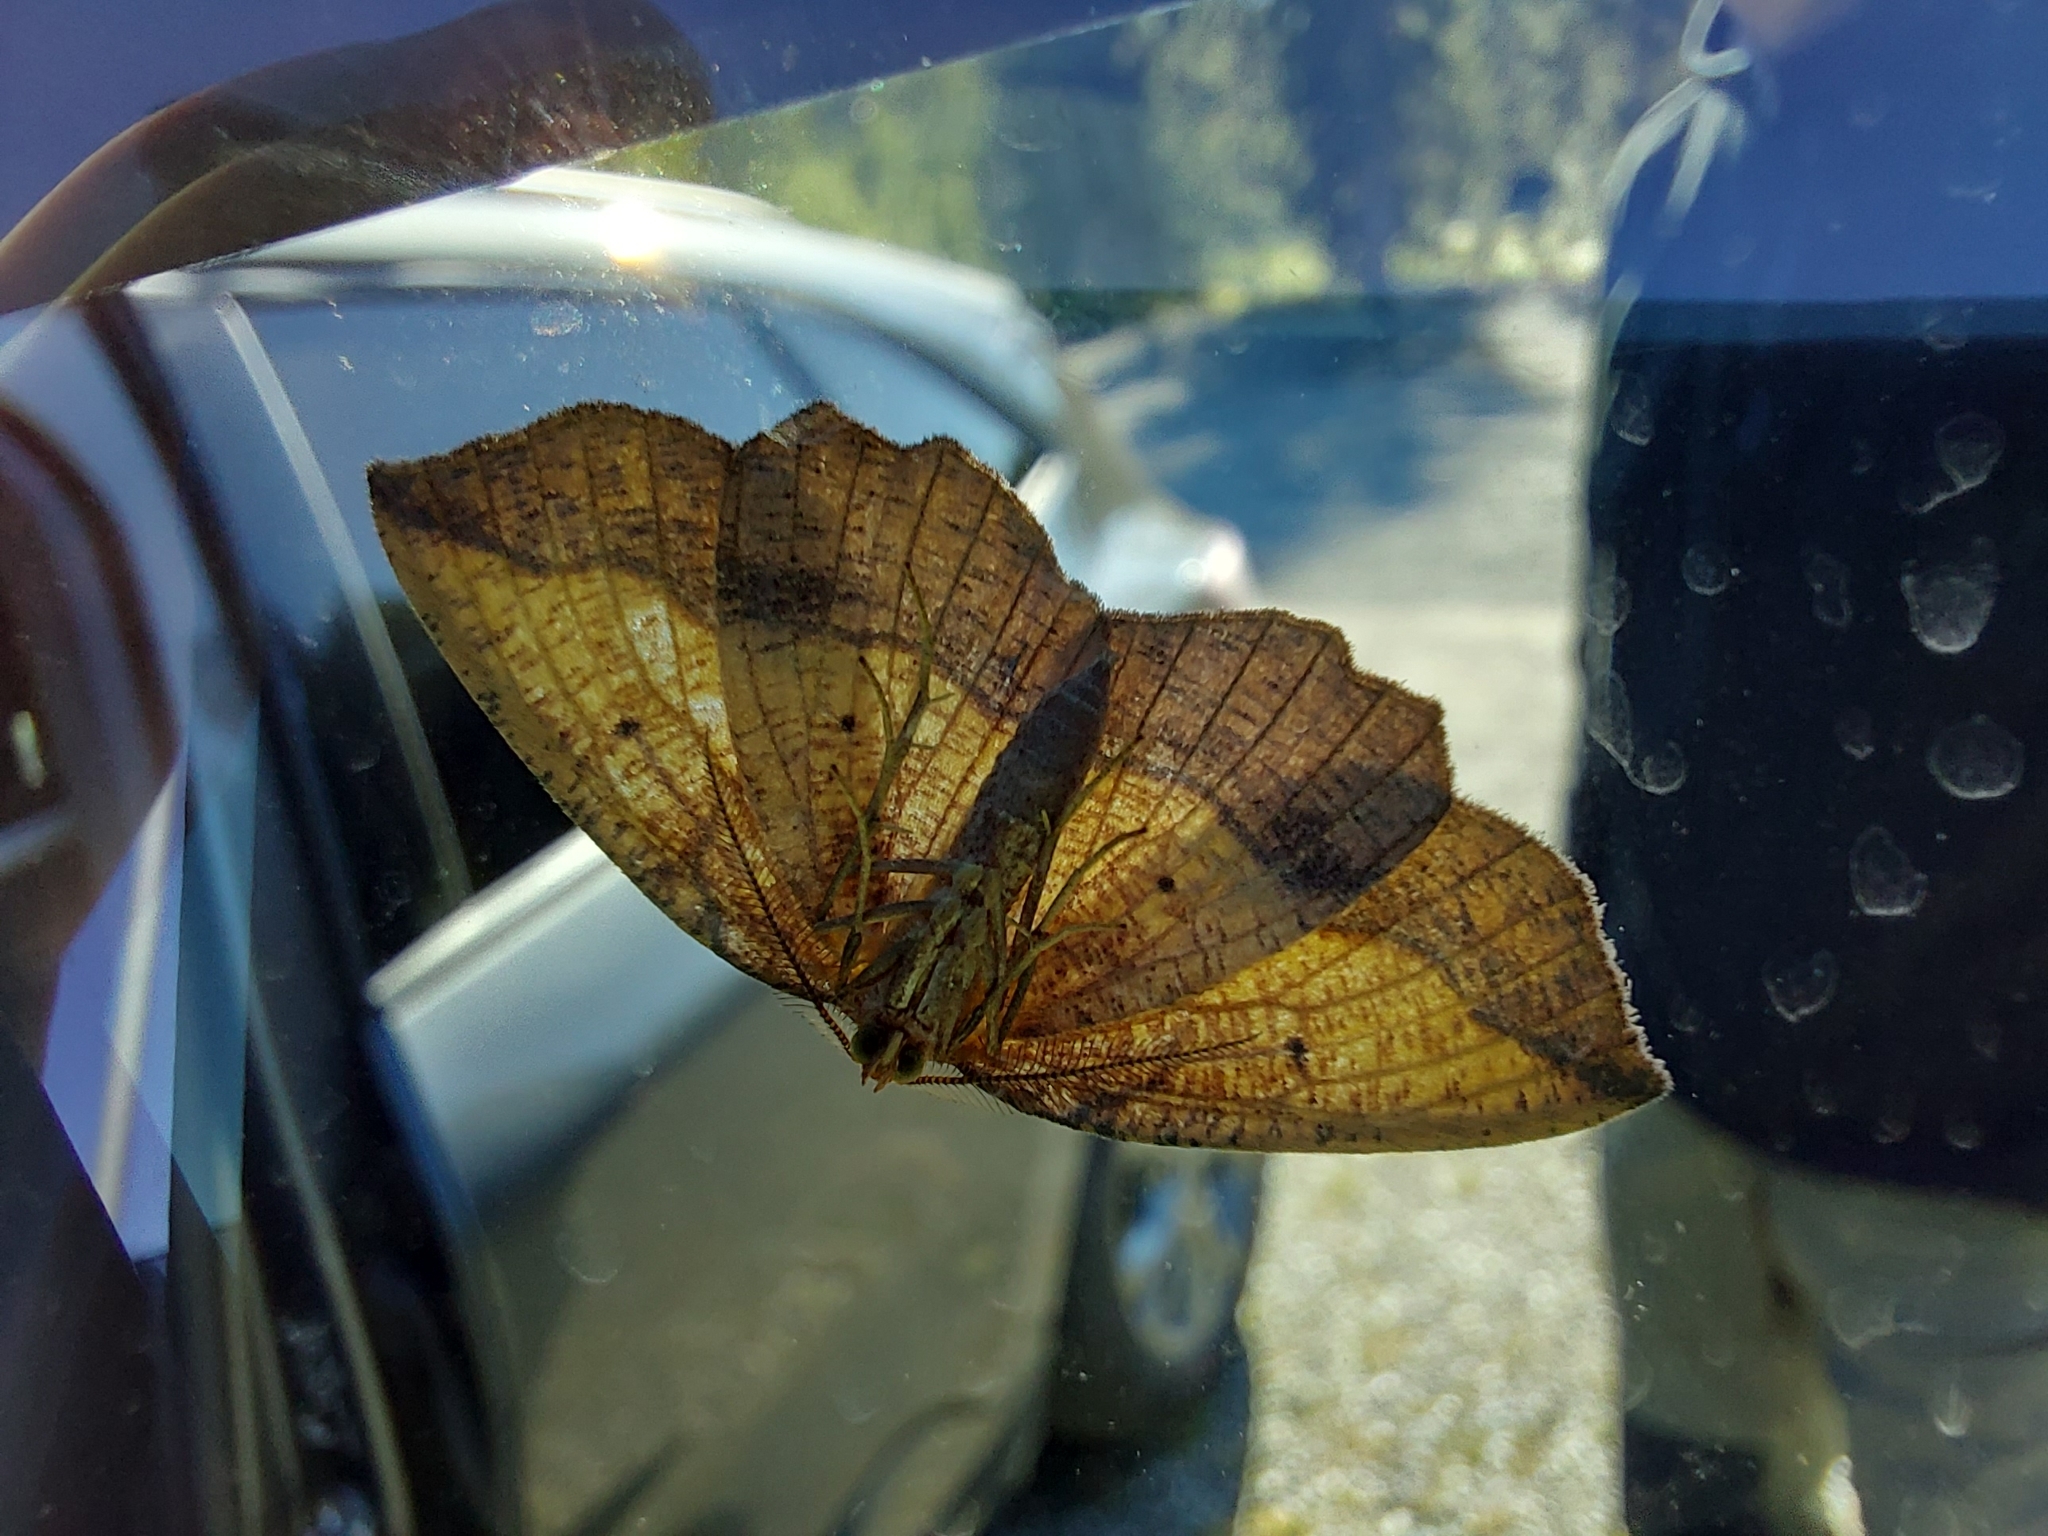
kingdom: Animalia
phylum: Arthropoda
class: Insecta
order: Lepidoptera
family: Geometridae
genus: Epione
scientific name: Epione repandaria
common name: Bordered beauty
